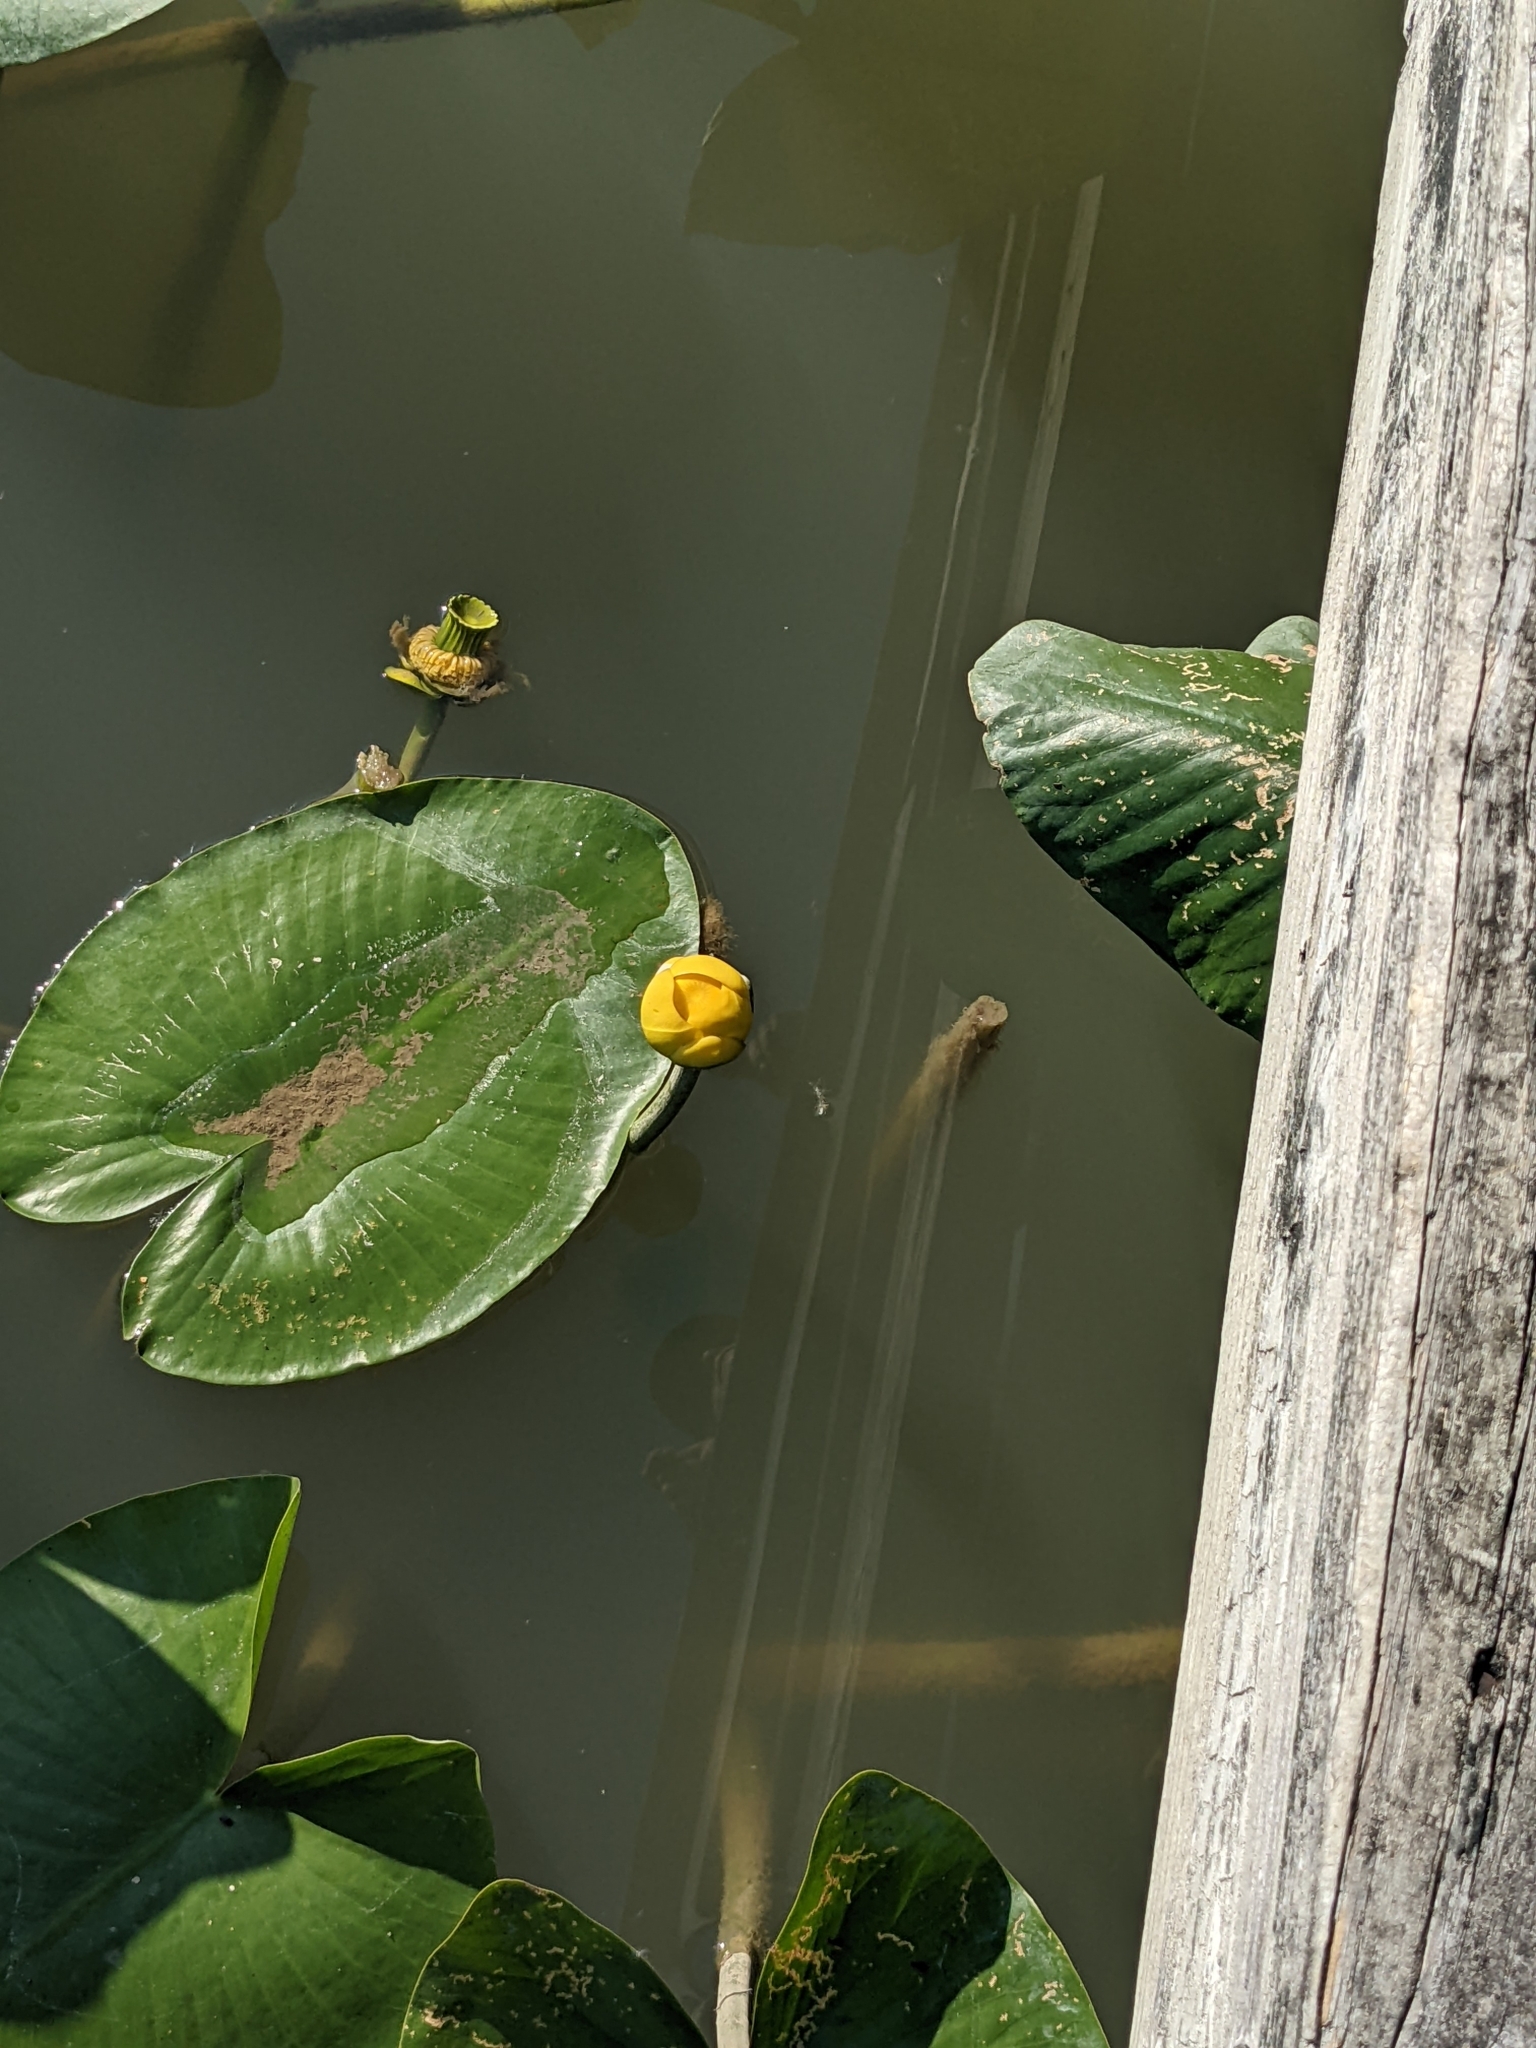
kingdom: Plantae
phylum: Tracheophyta
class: Magnoliopsida
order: Nymphaeales
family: Nymphaeaceae
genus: Nuphar
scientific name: Nuphar advena
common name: Spatter-dock
